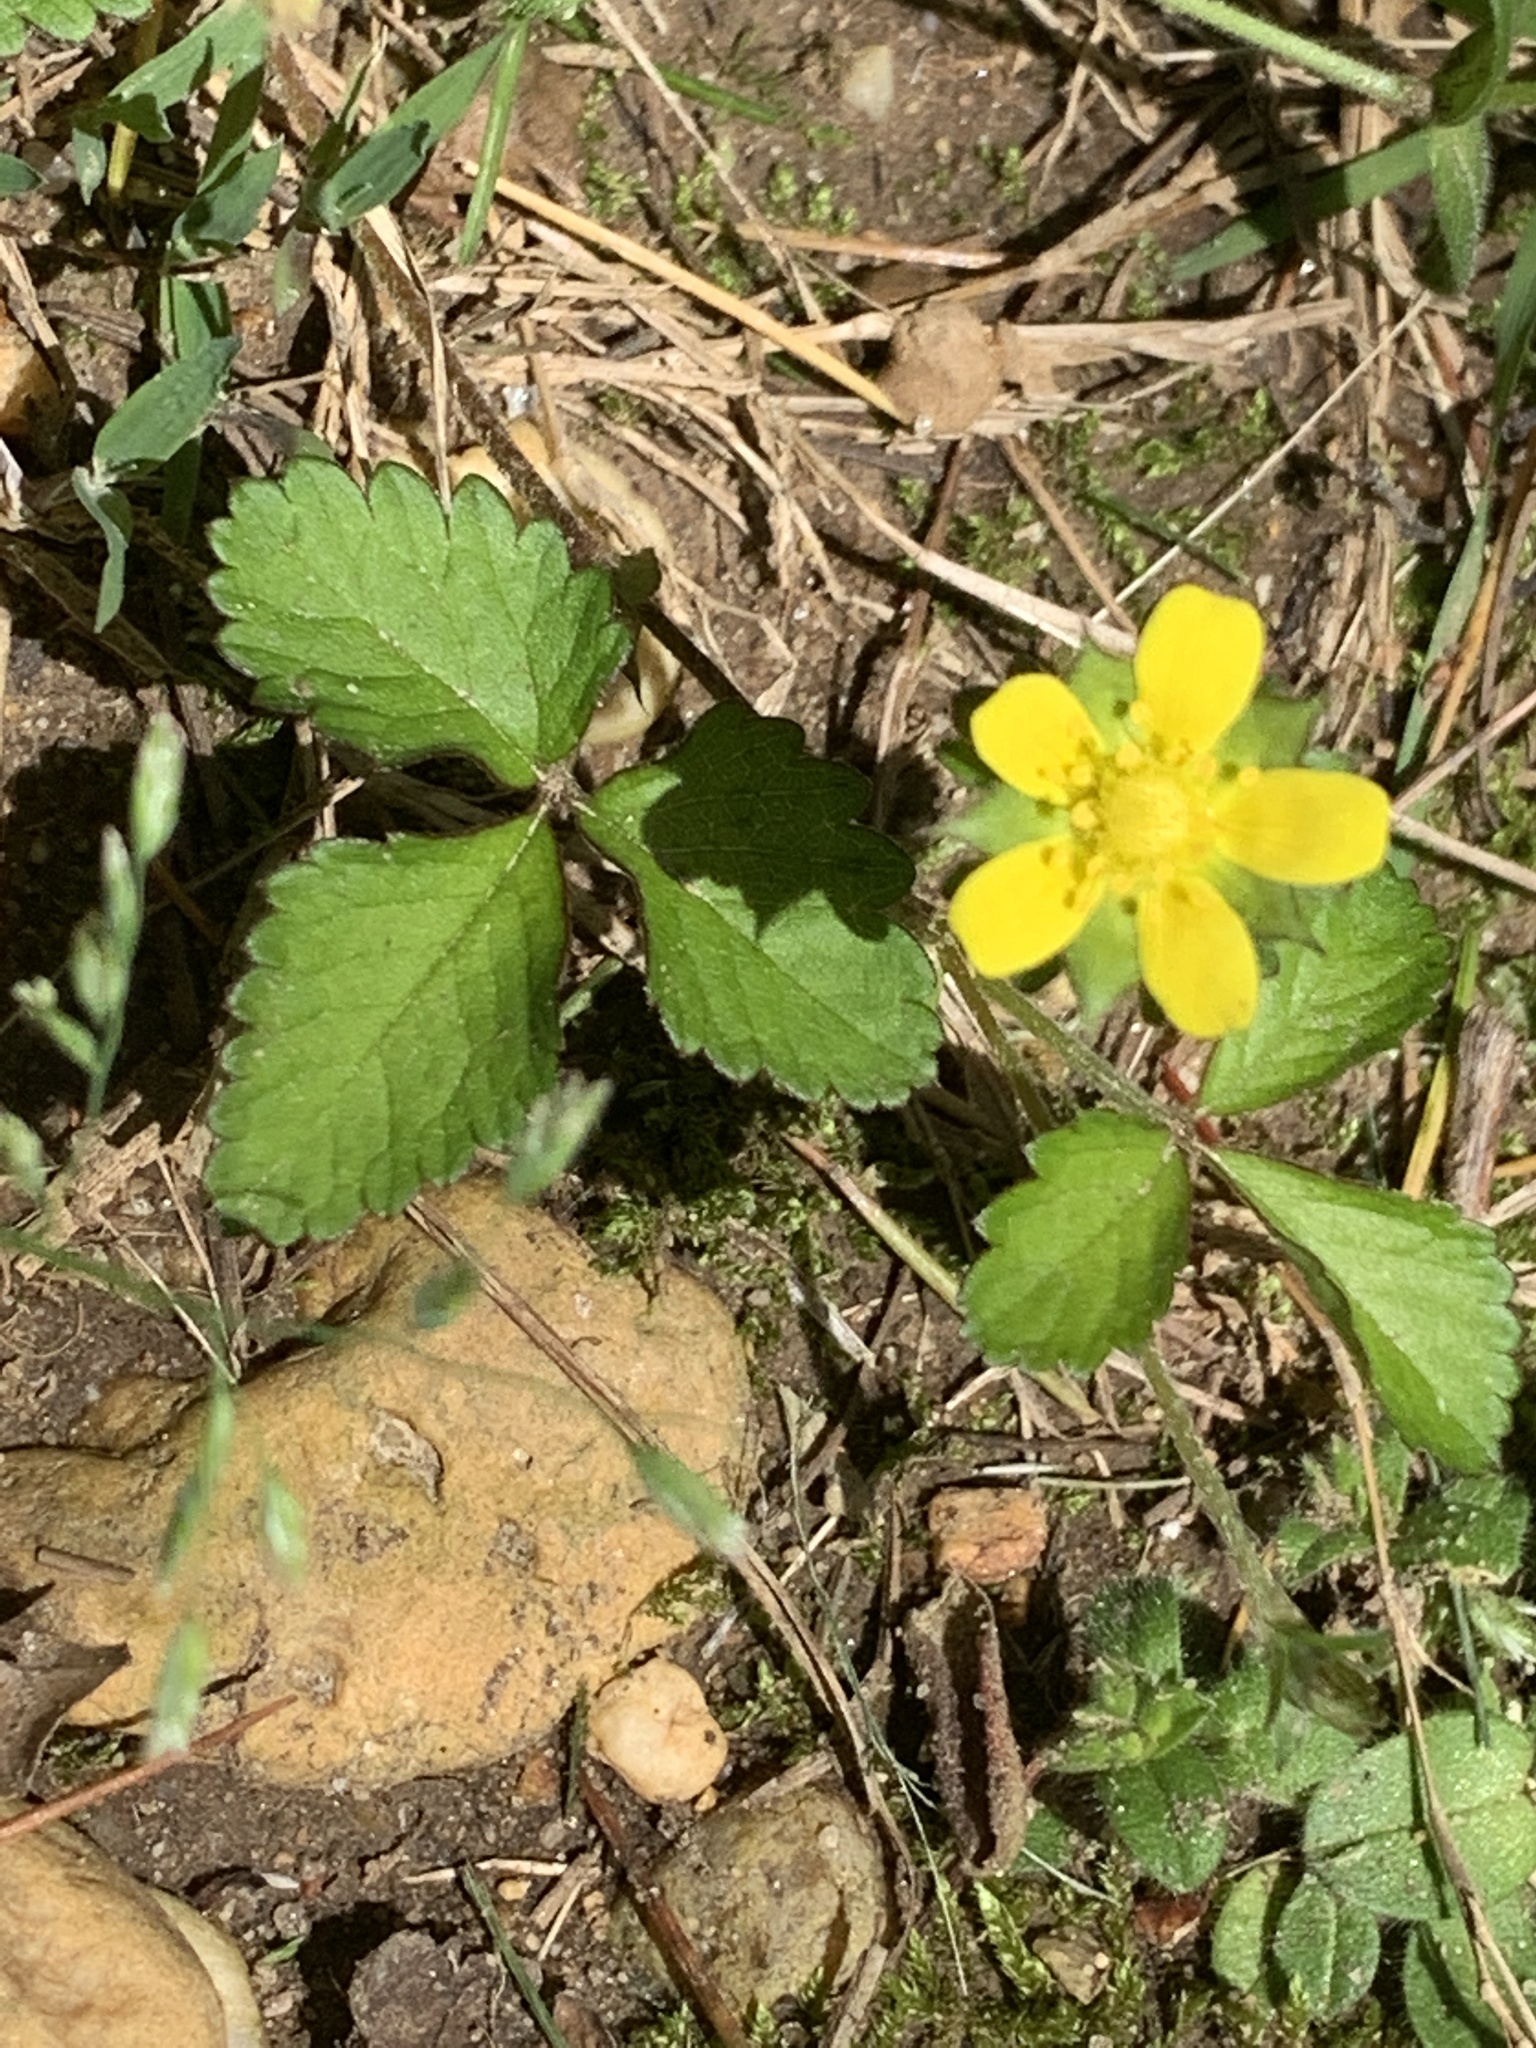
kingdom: Plantae
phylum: Tracheophyta
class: Magnoliopsida
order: Rosales
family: Rosaceae
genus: Potentilla
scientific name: Potentilla indica
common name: Yellow-flowered strawberry
